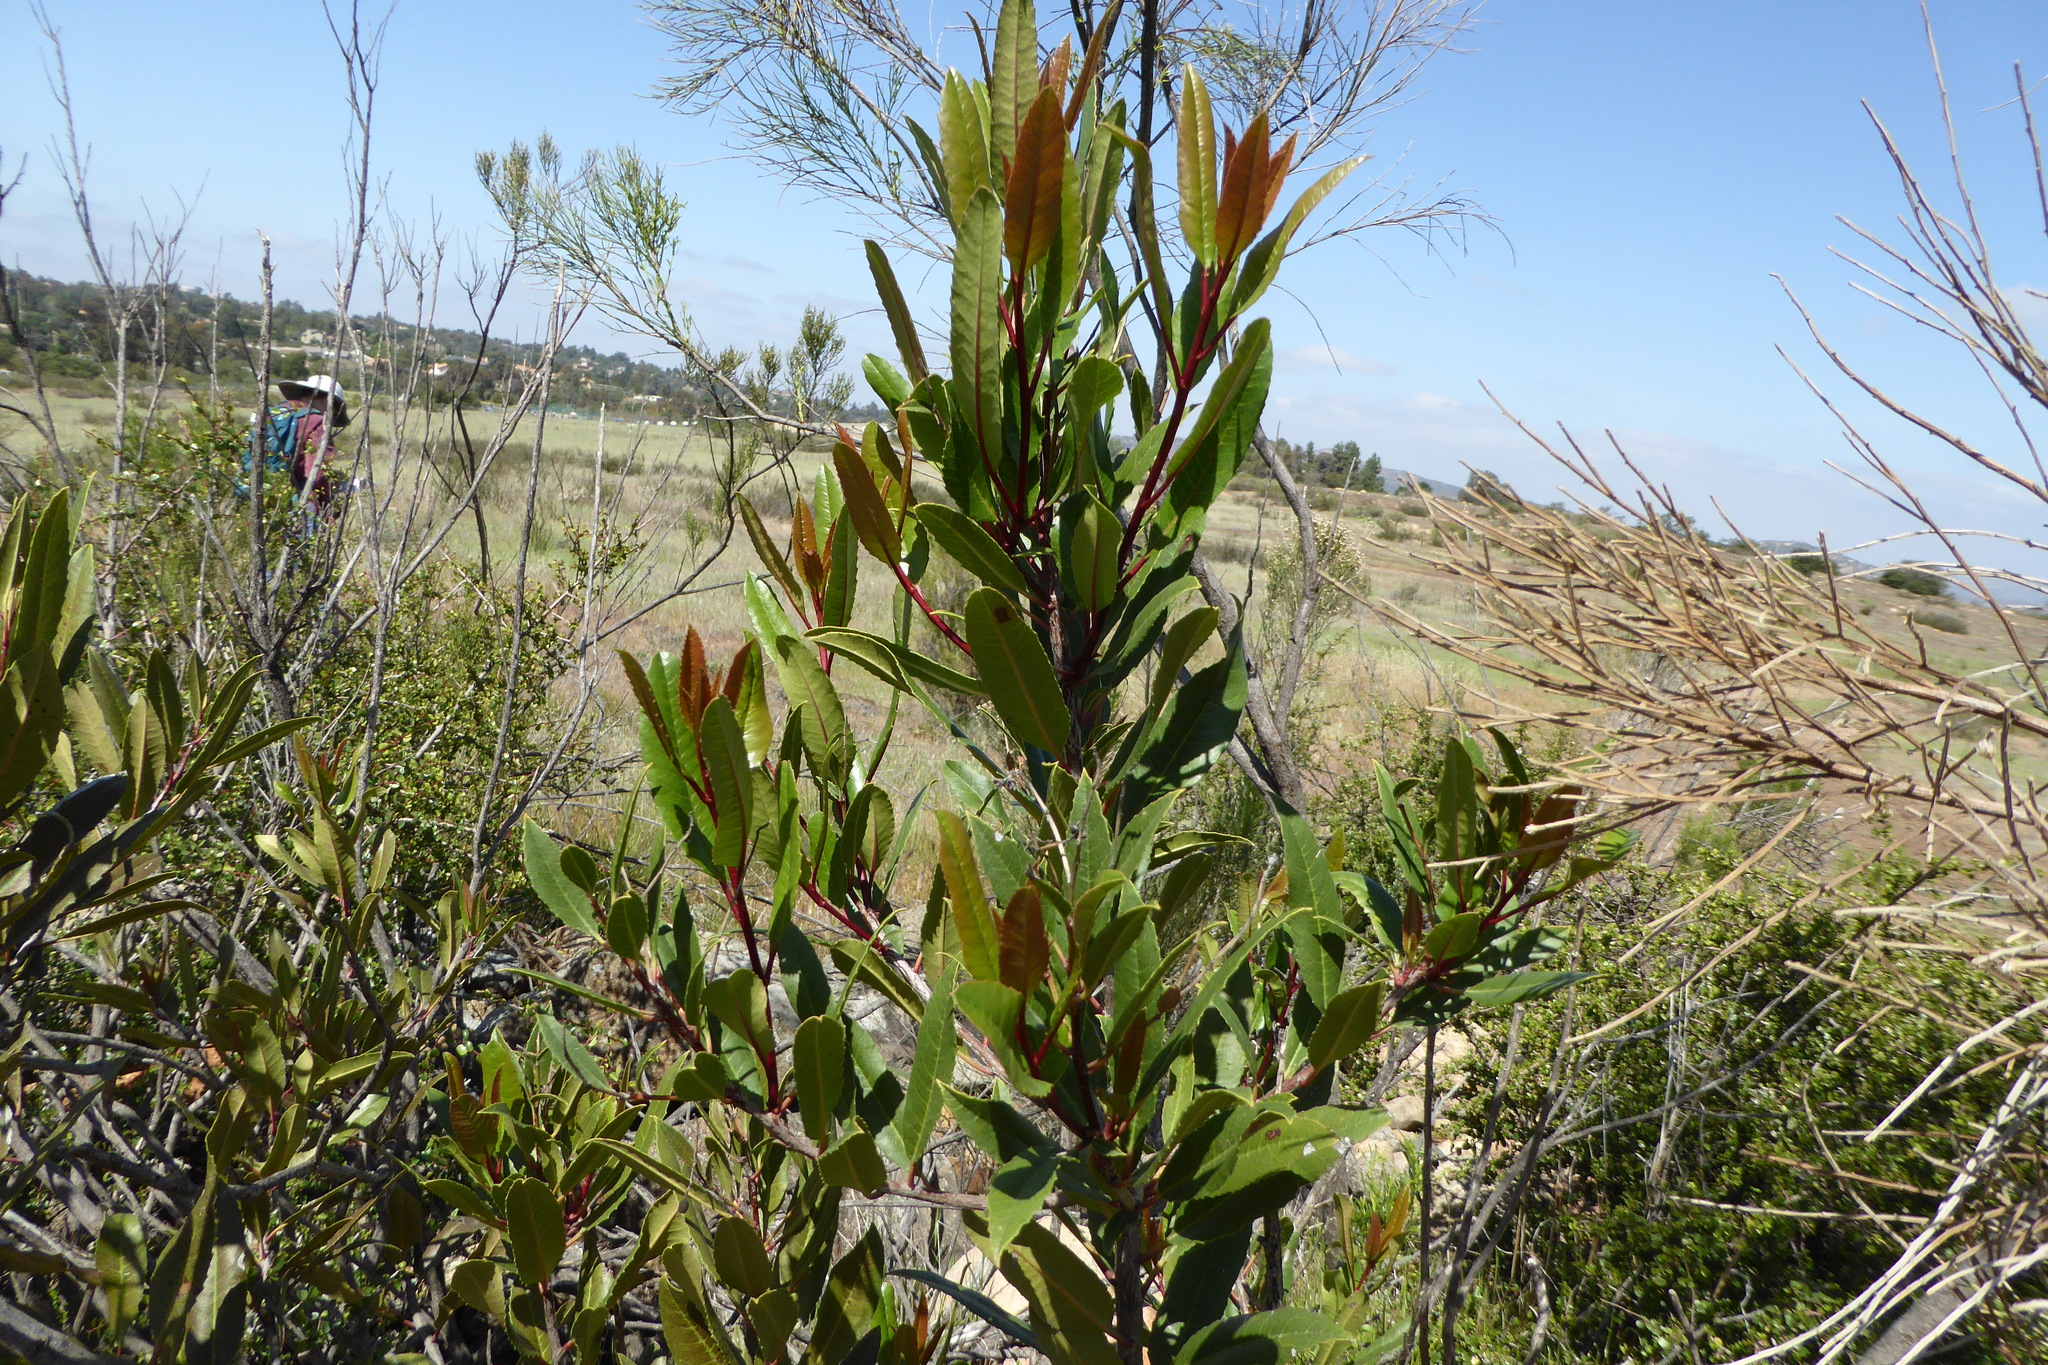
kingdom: Plantae
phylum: Tracheophyta
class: Magnoliopsida
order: Rosales
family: Rosaceae
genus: Heteromeles
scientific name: Heteromeles arbutifolia
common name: California-holly
